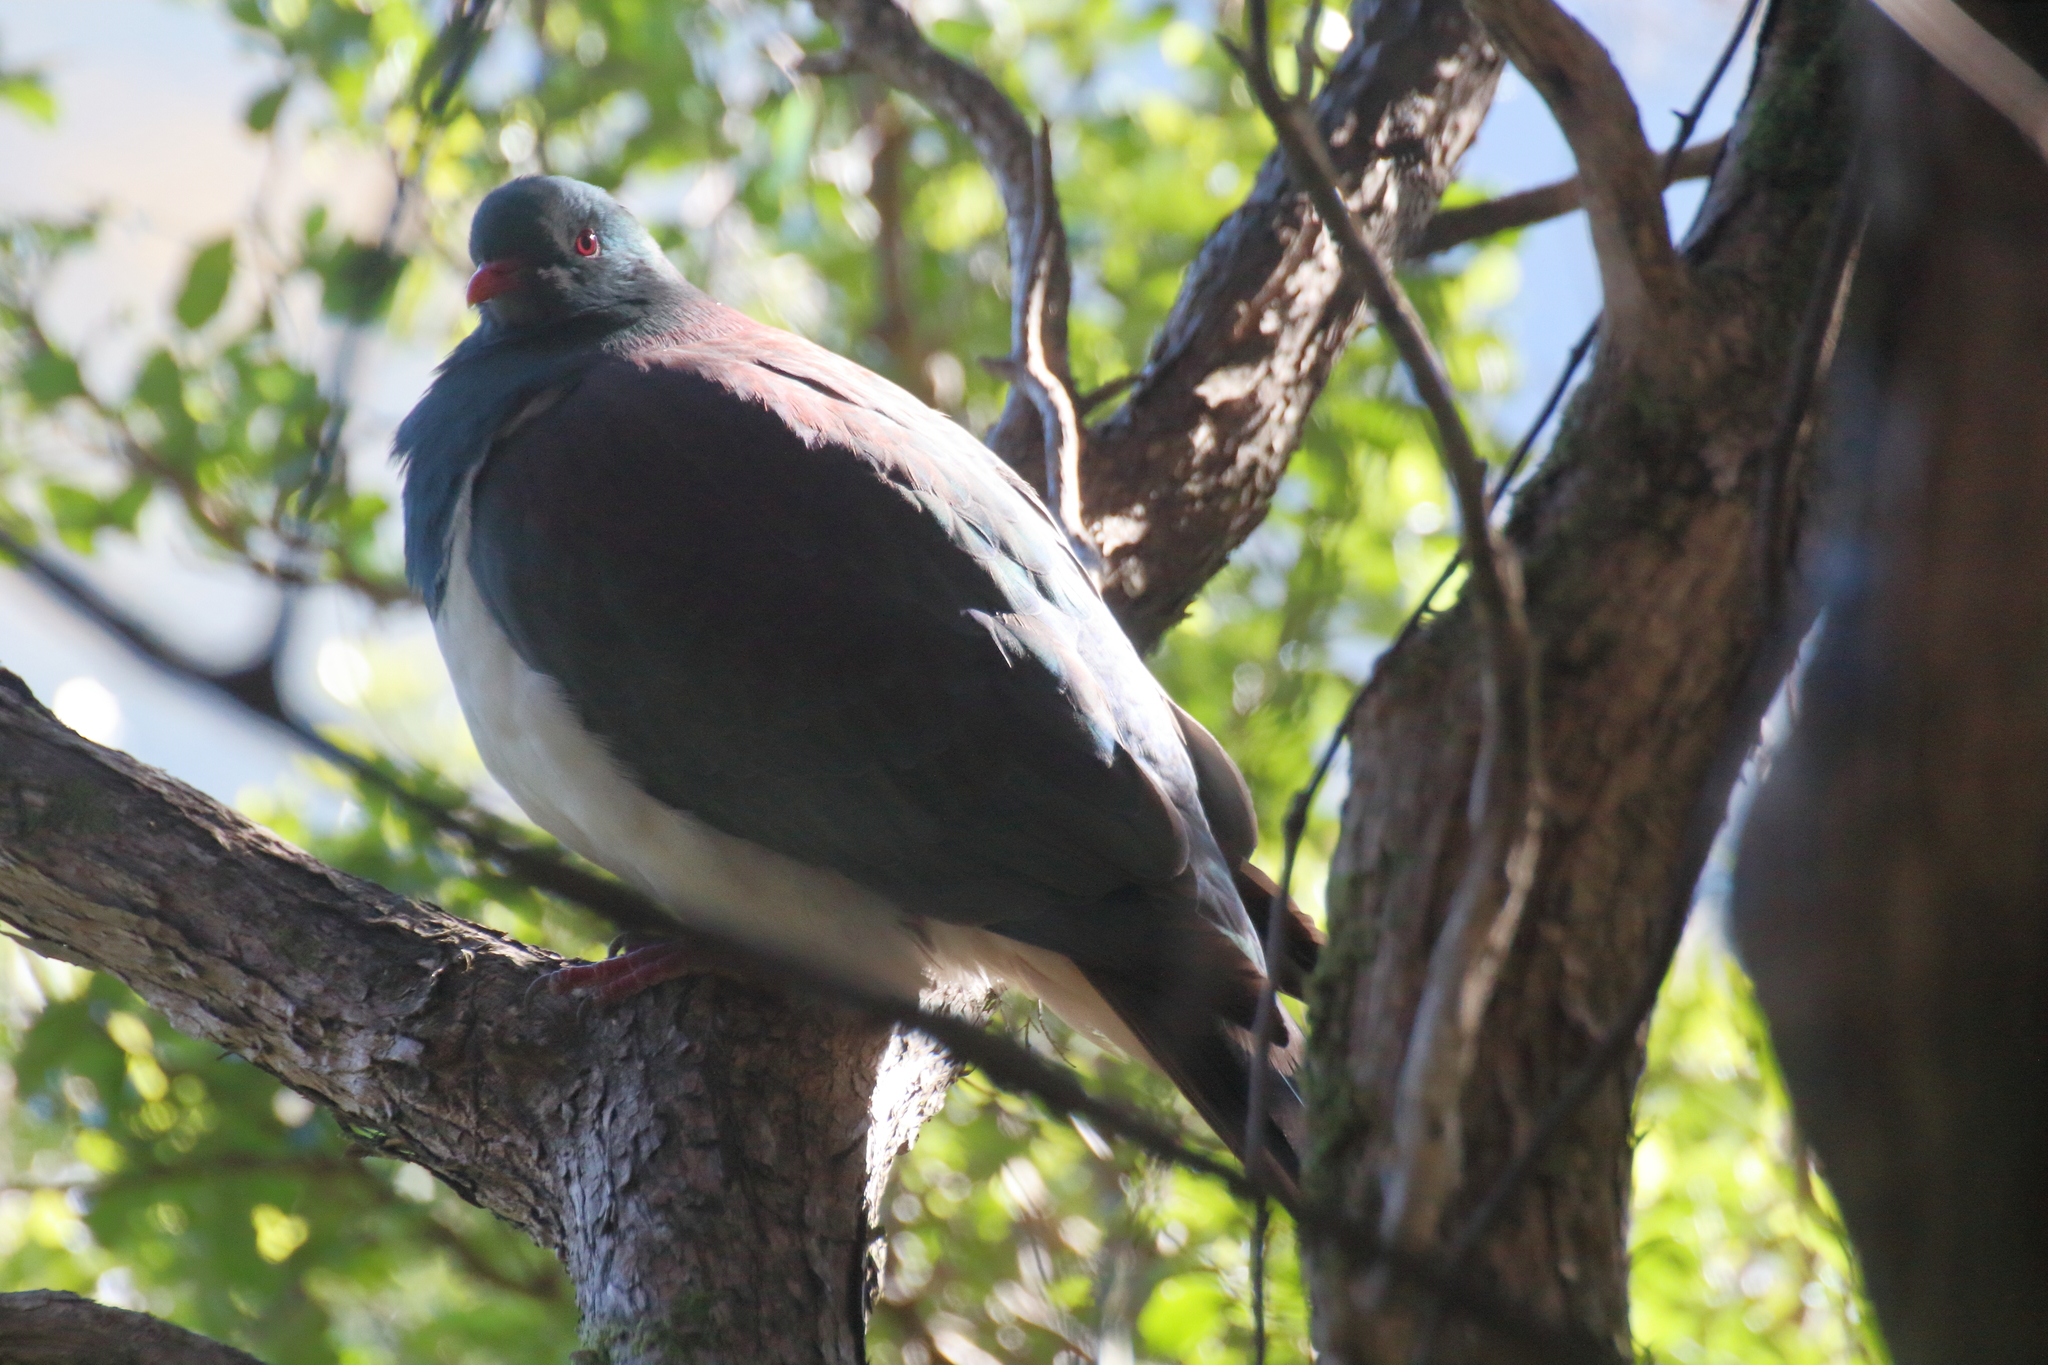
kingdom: Animalia
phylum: Chordata
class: Aves
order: Columbiformes
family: Columbidae
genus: Hemiphaga
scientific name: Hemiphaga novaeseelandiae
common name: New zealand pigeon
